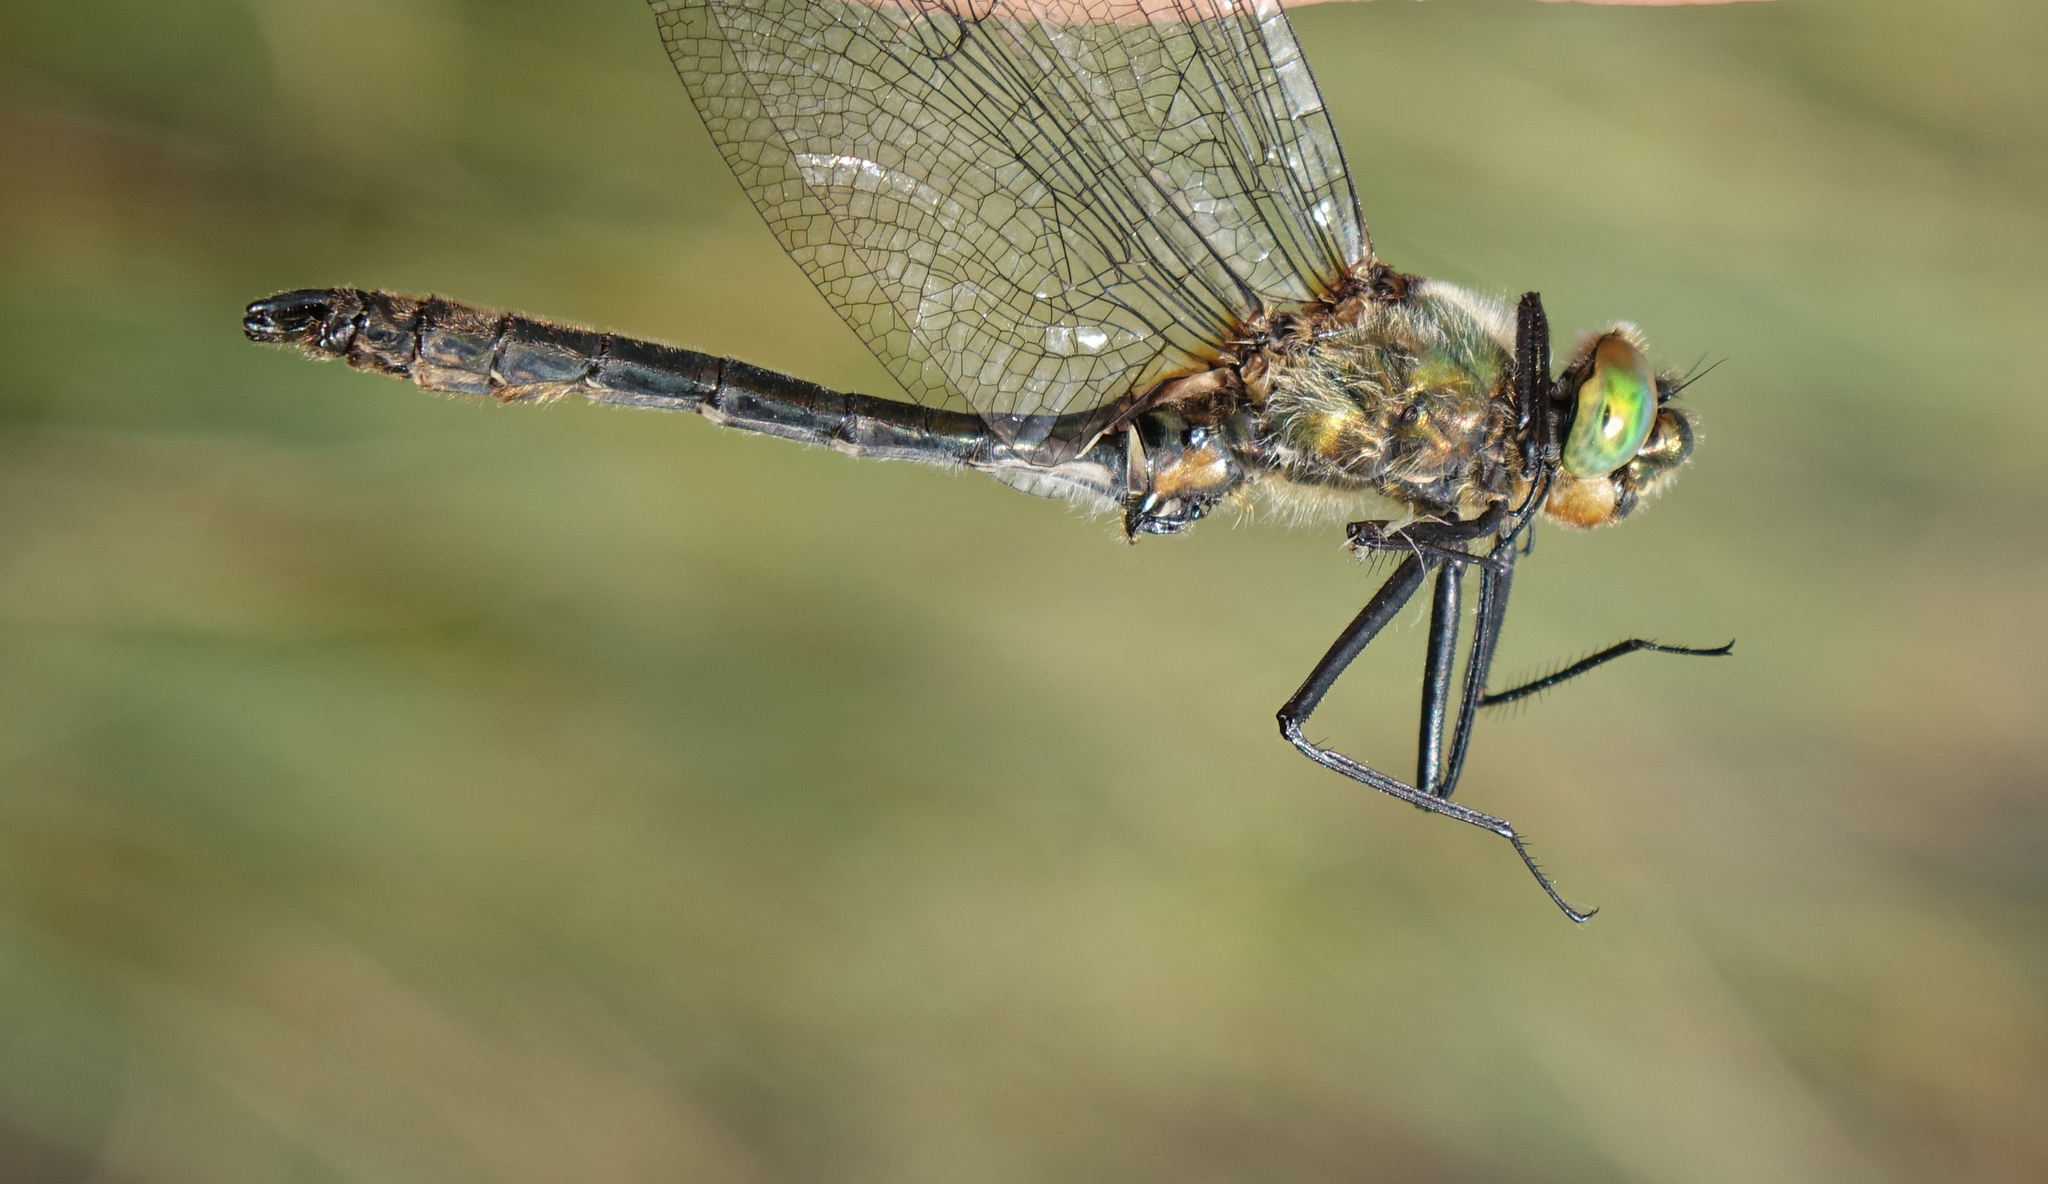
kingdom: Animalia
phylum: Arthropoda
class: Insecta
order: Odonata
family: Corduliidae
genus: Cordulia
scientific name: Cordulia aenea
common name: Downy emerald
